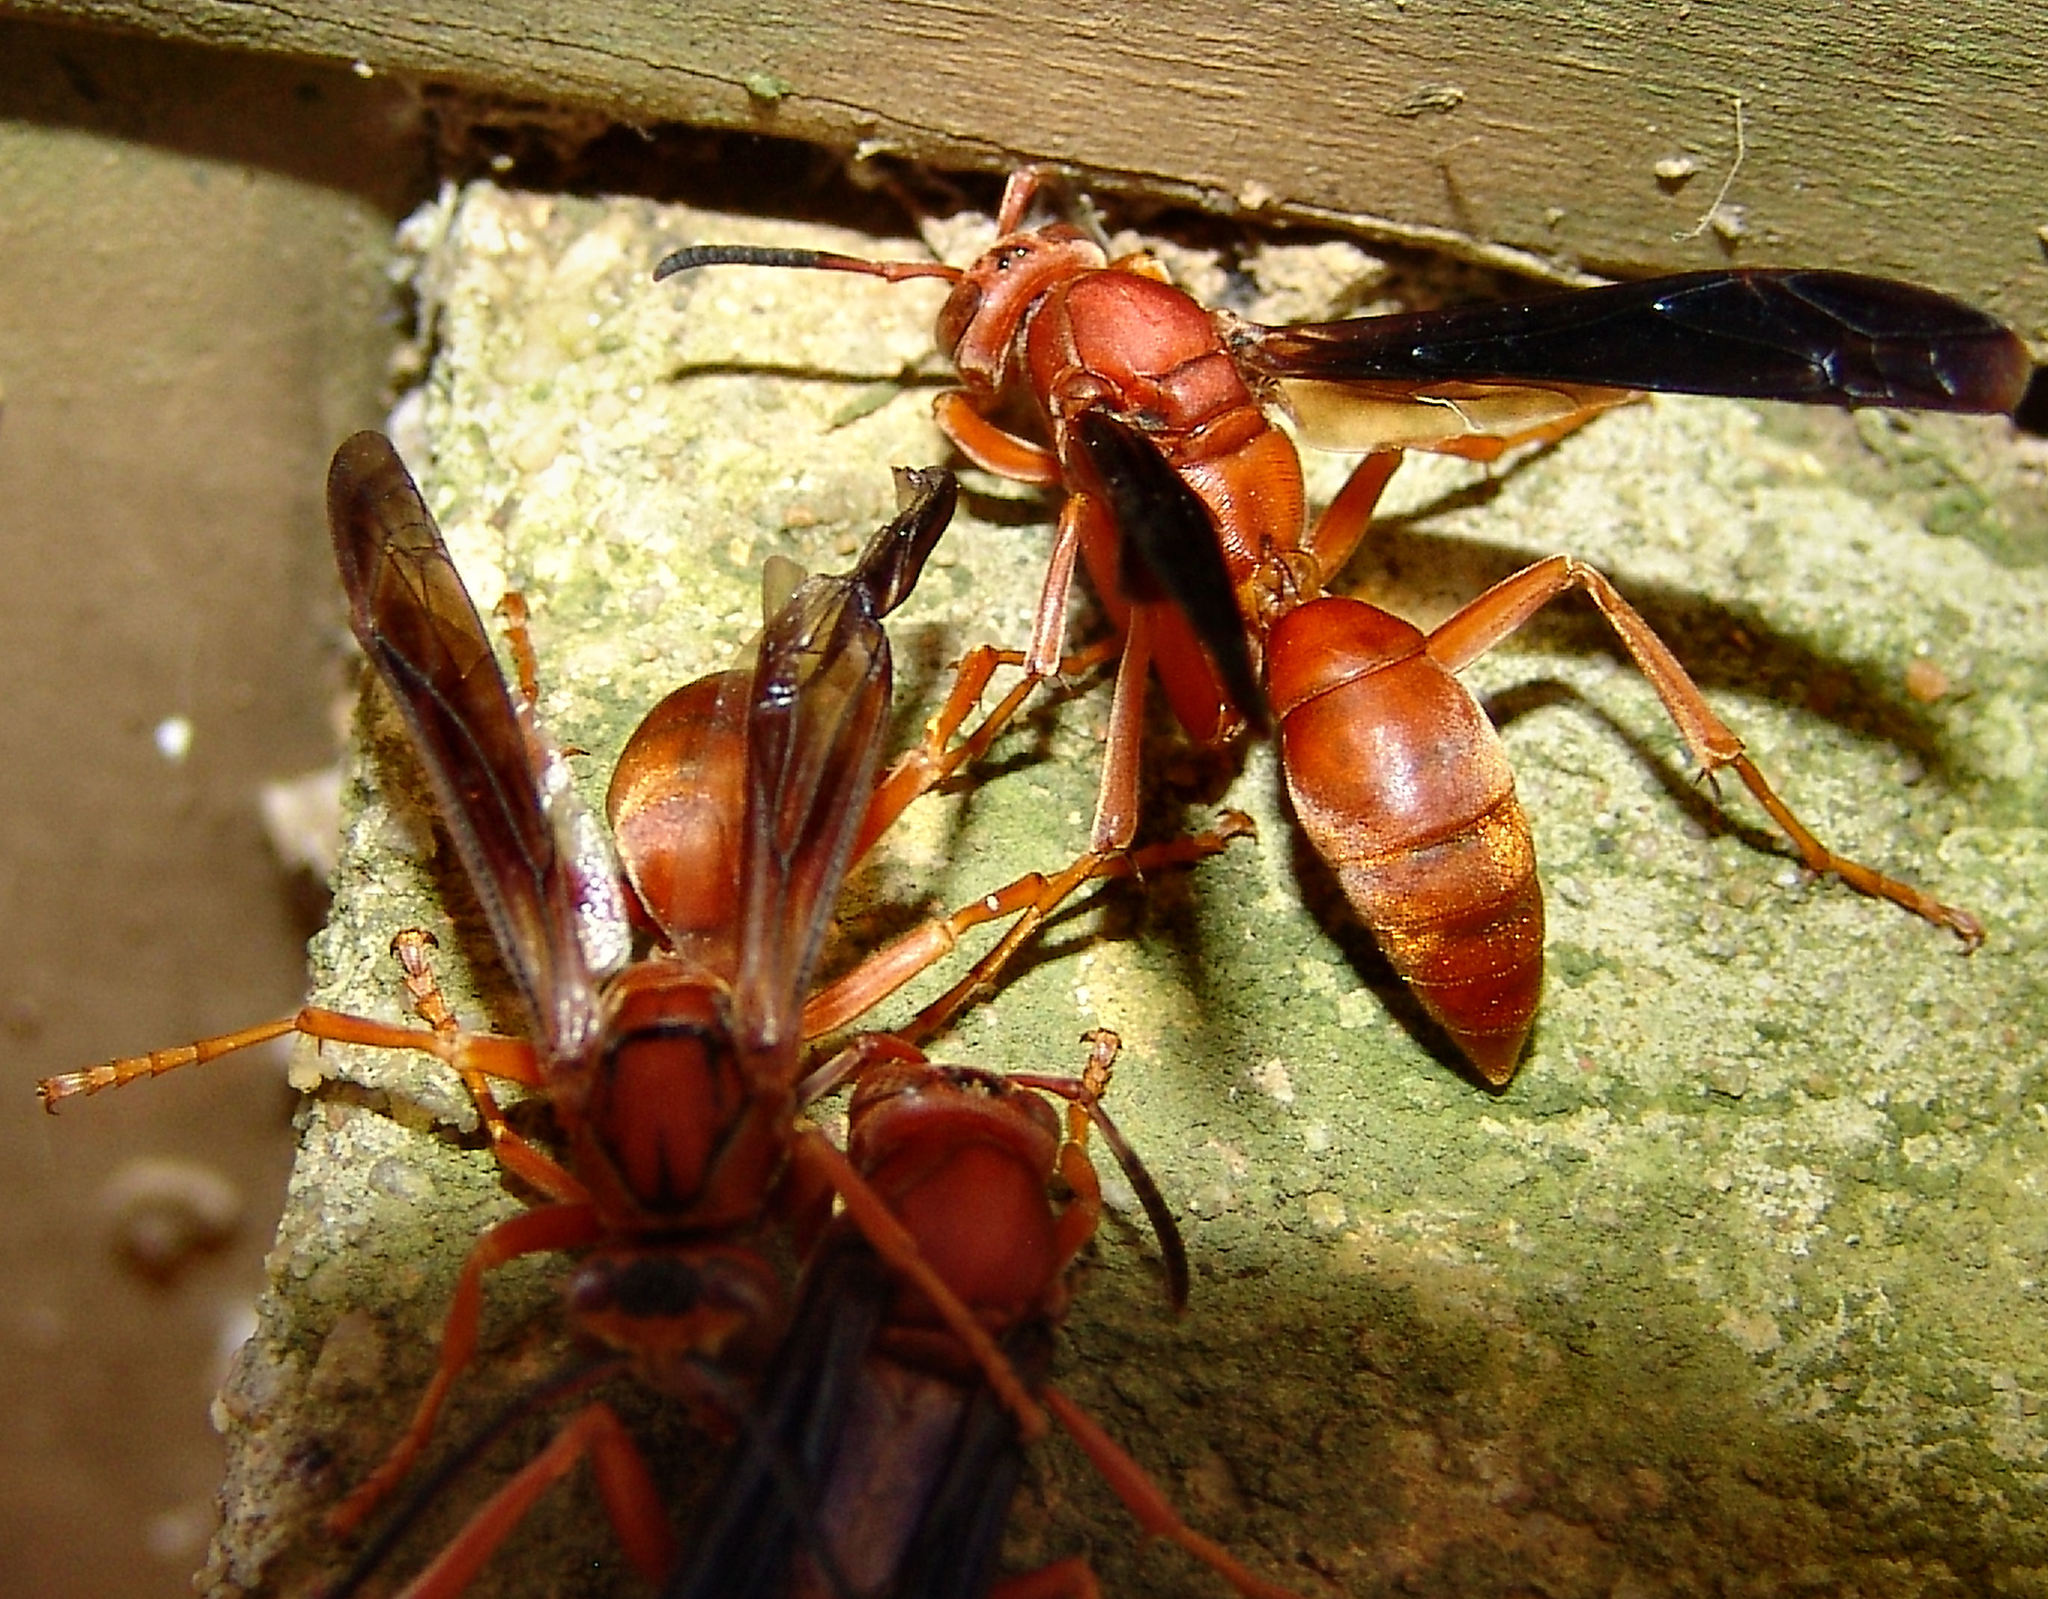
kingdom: Animalia
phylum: Arthropoda
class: Insecta
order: Hymenoptera
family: Eumenidae
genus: Polistes
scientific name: Polistes carolina
